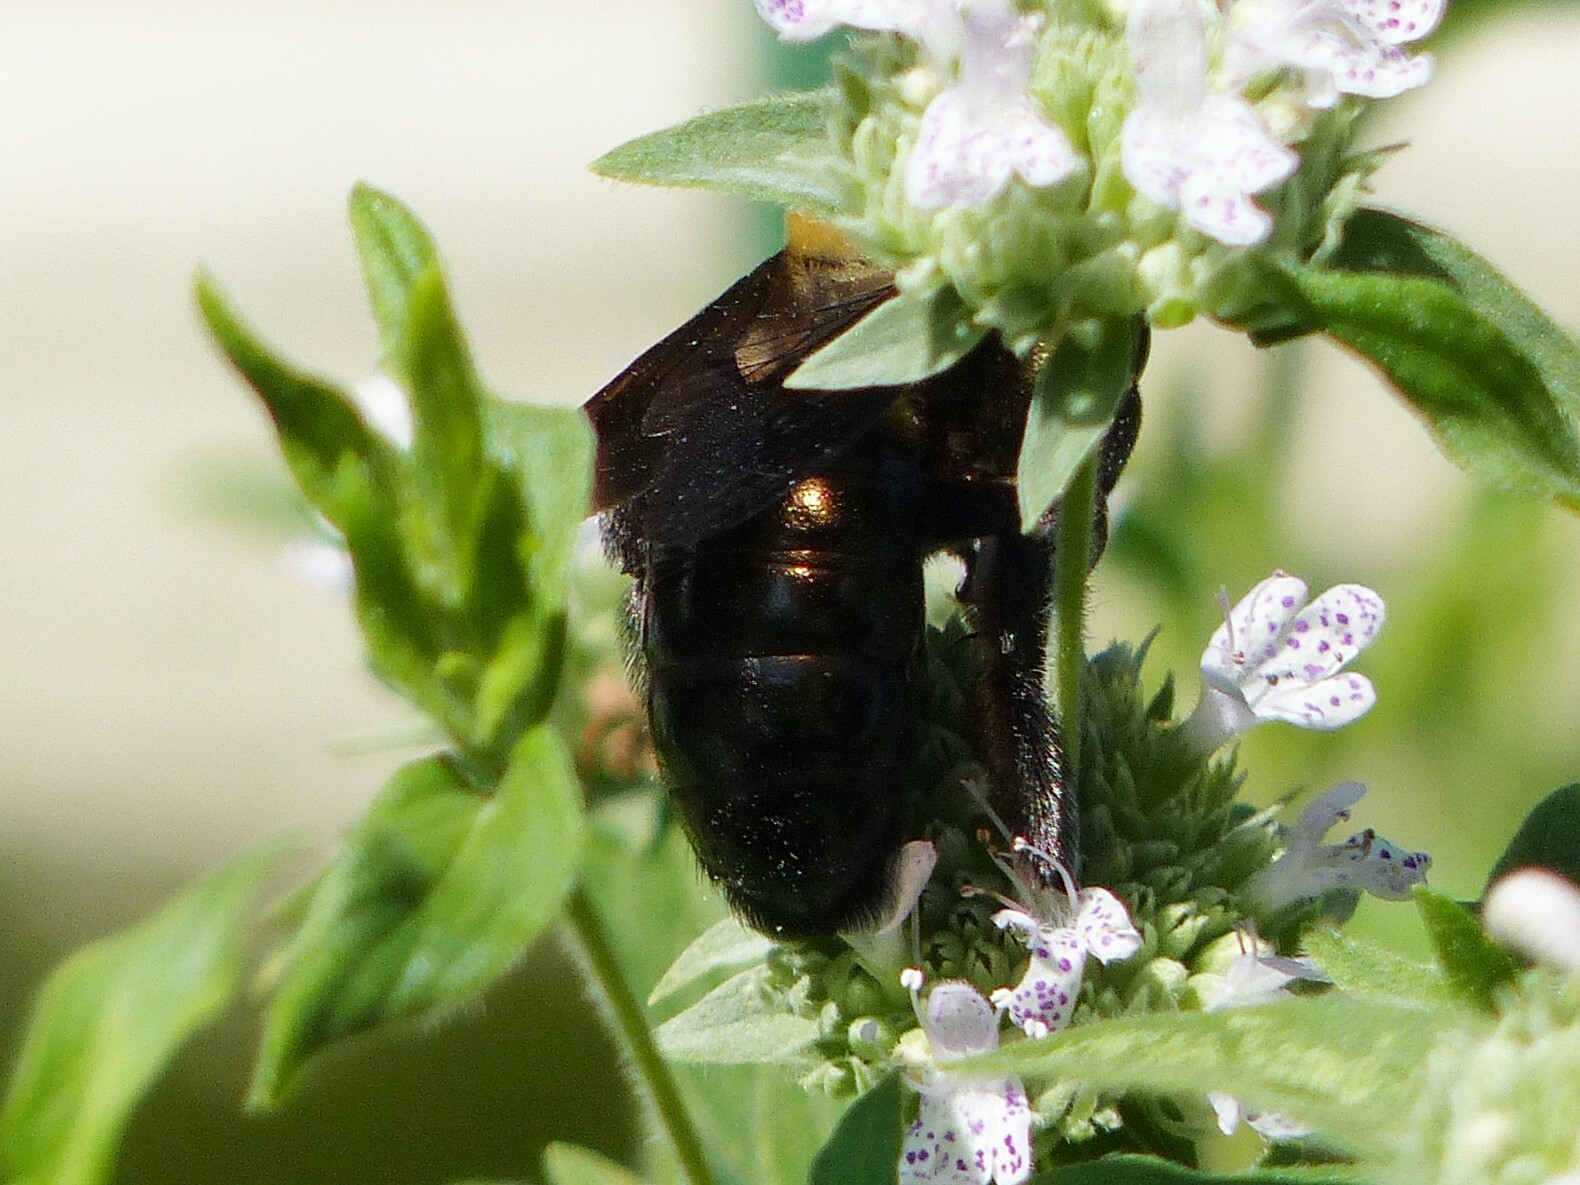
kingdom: Animalia
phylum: Arthropoda
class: Insecta
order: Hymenoptera
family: Apidae
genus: Xylocopa
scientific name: Xylocopa virginica
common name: Carpenter bee
